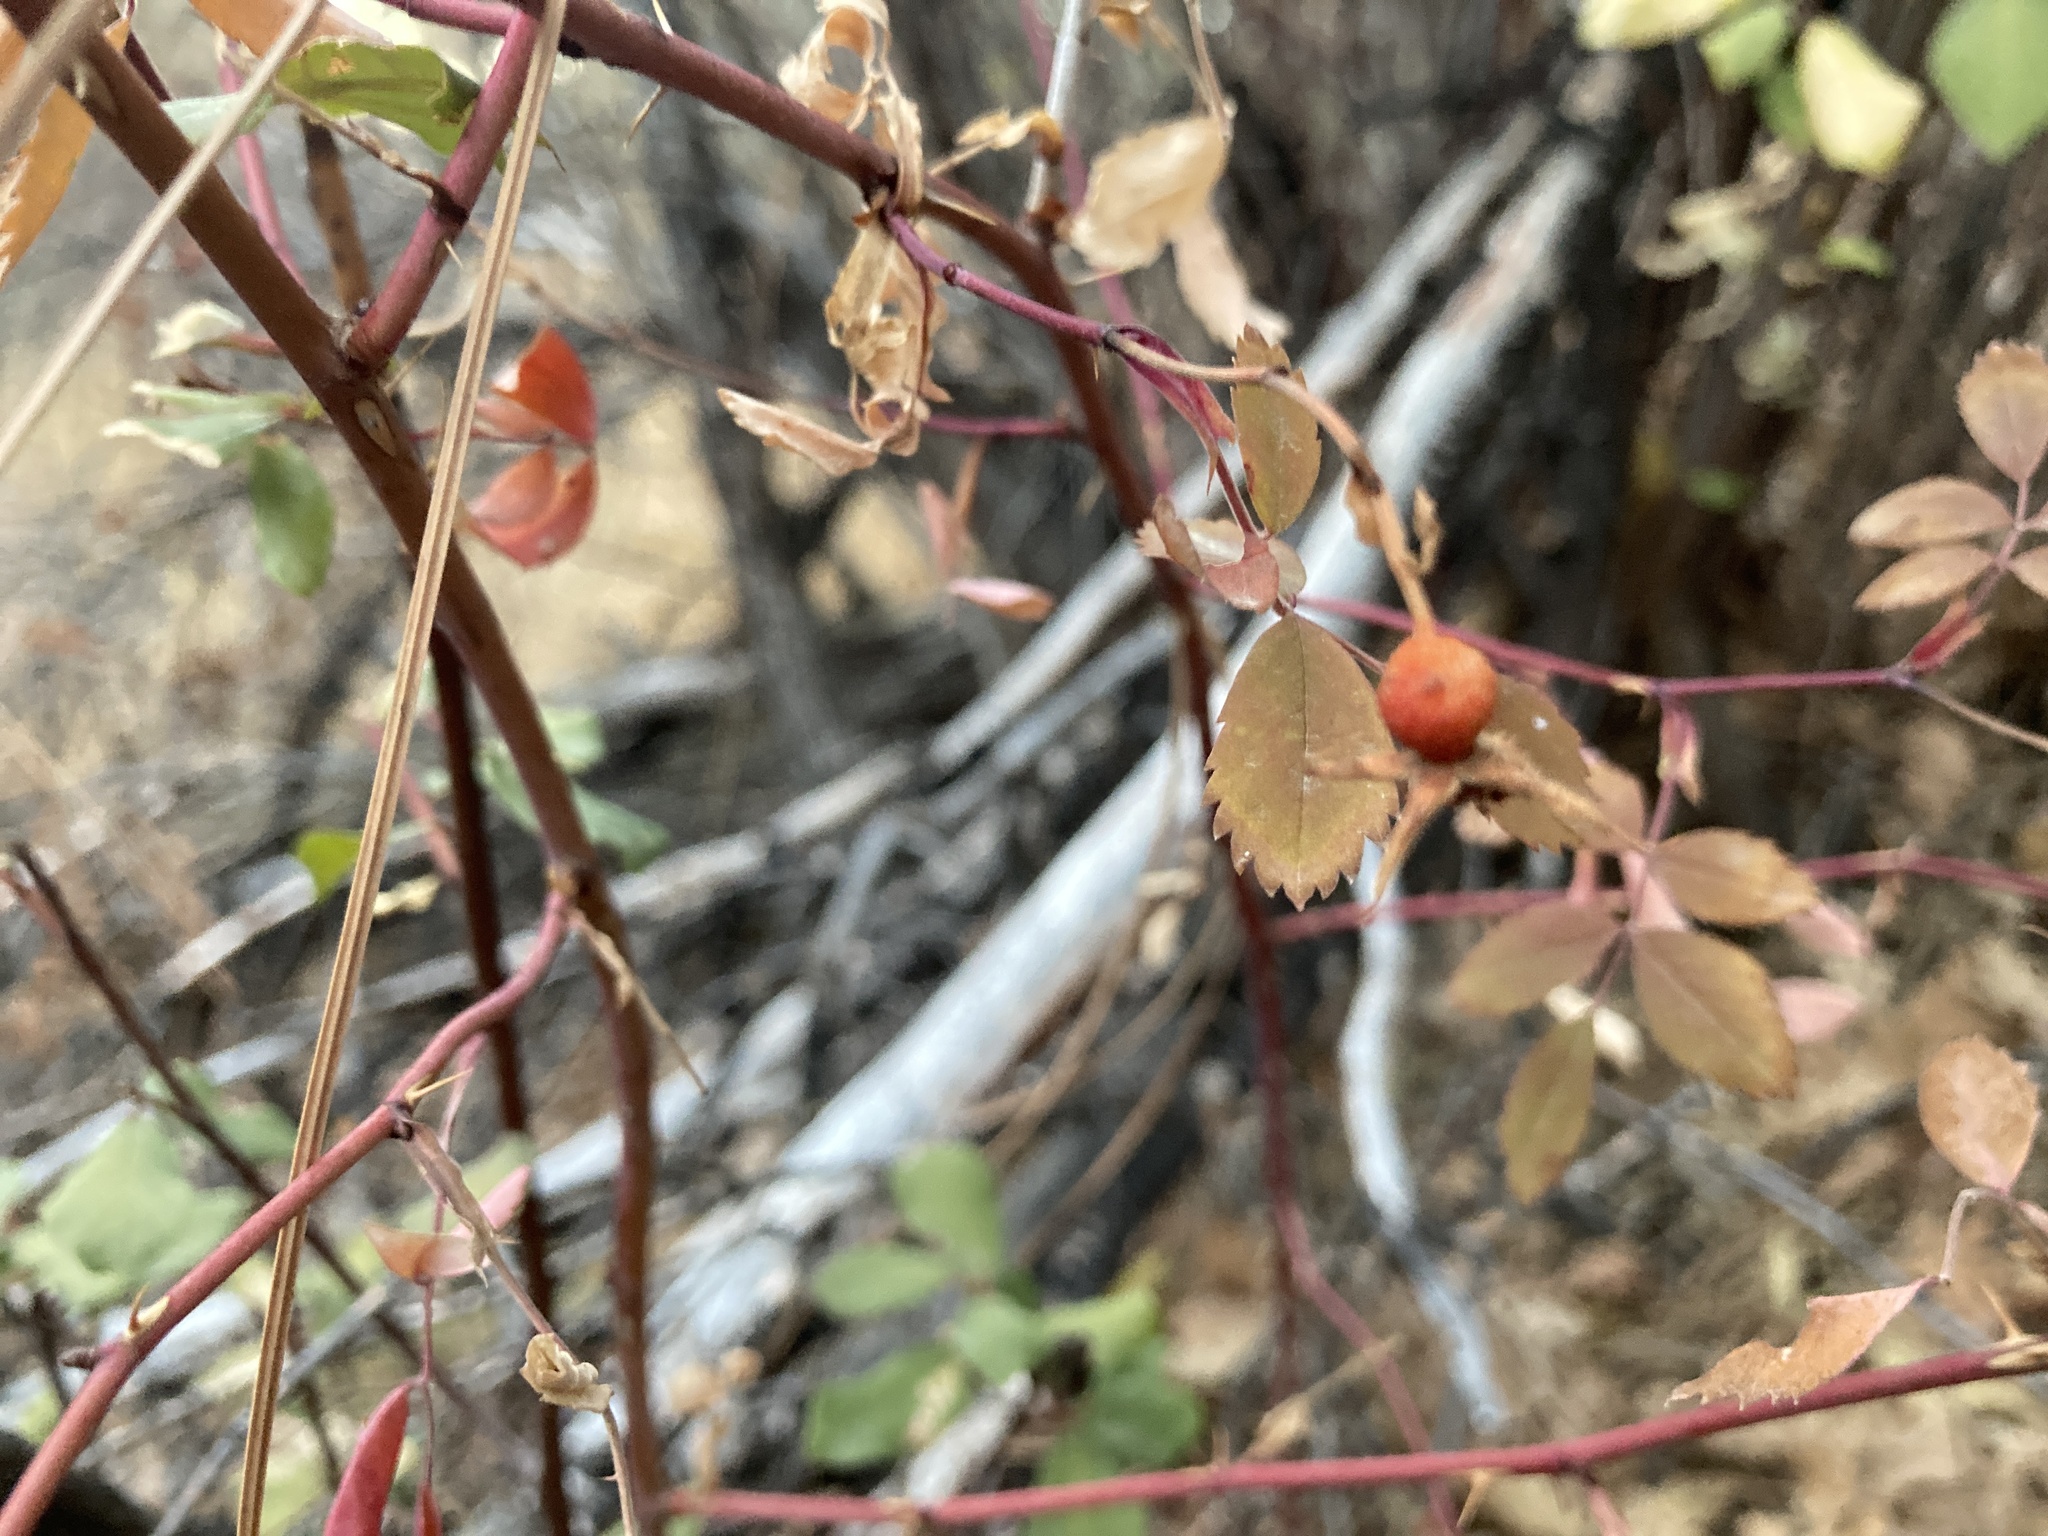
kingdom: Plantae
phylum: Tracheophyta
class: Magnoliopsida
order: Rosales
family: Rosaceae
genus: Rosa
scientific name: Rosa woodsii
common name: Woods's rose
